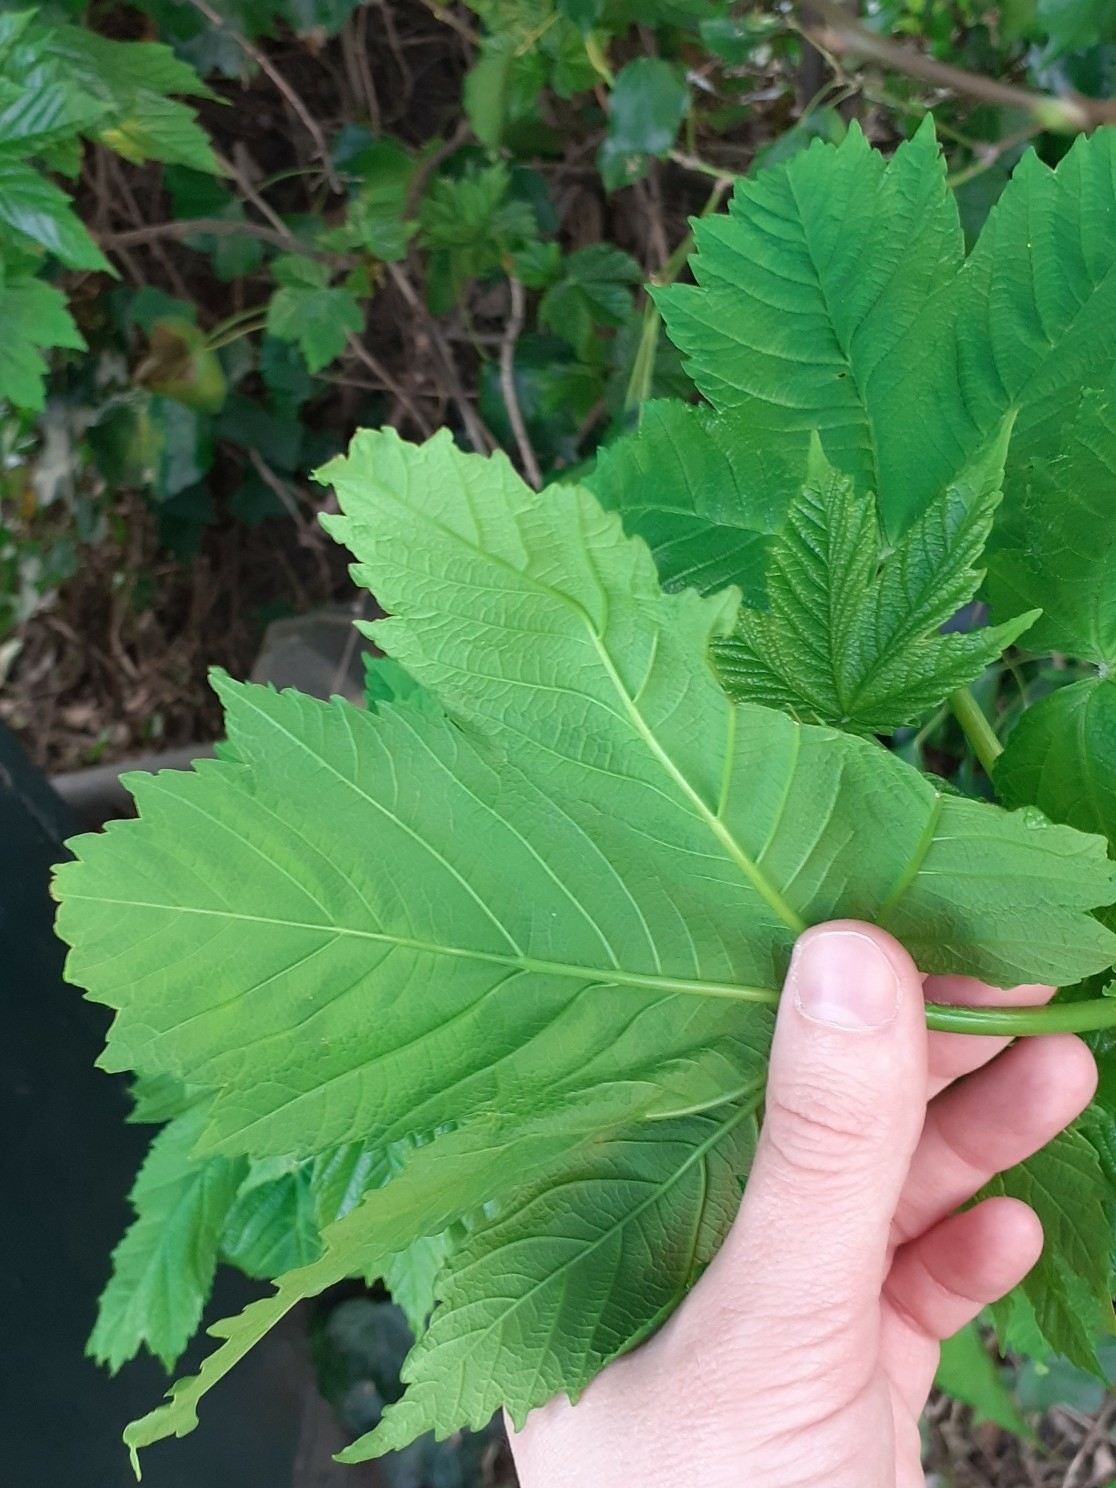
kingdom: Plantae
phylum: Tracheophyta
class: Magnoliopsida
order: Sapindales
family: Sapindaceae
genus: Acer
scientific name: Acer pseudoplatanus
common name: Sycamore
